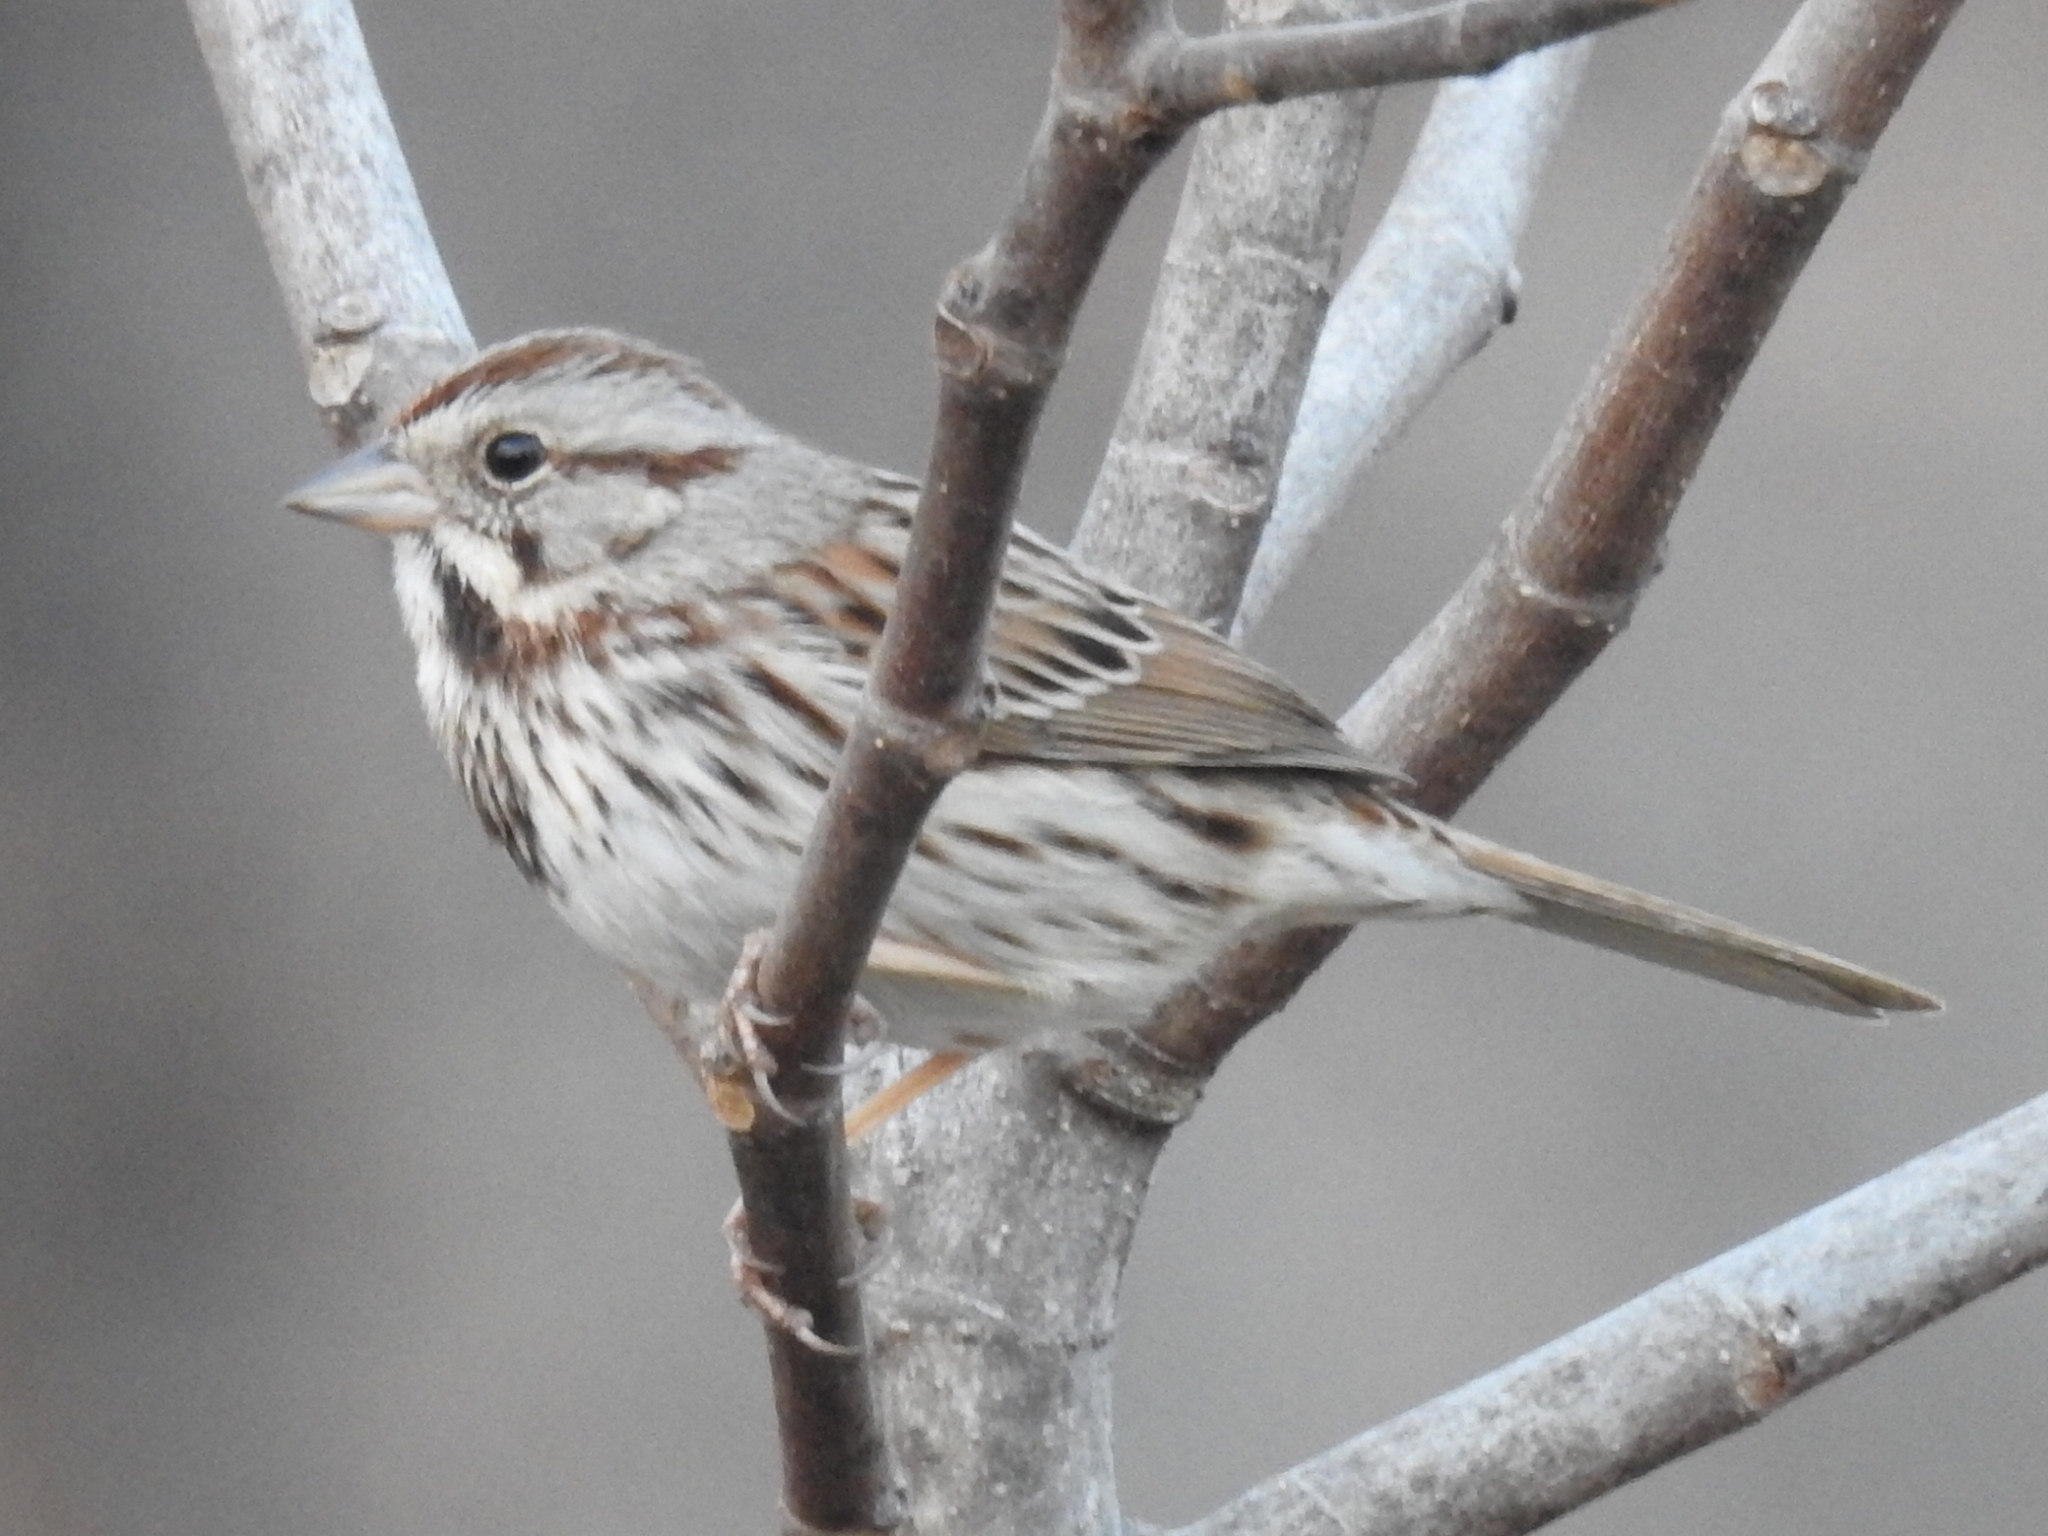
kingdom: Animalia
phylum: Chordata
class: Aves
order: Passeriformes
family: Passerellidae
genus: Melospiza
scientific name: Melospiza melodia
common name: Song sparrow
